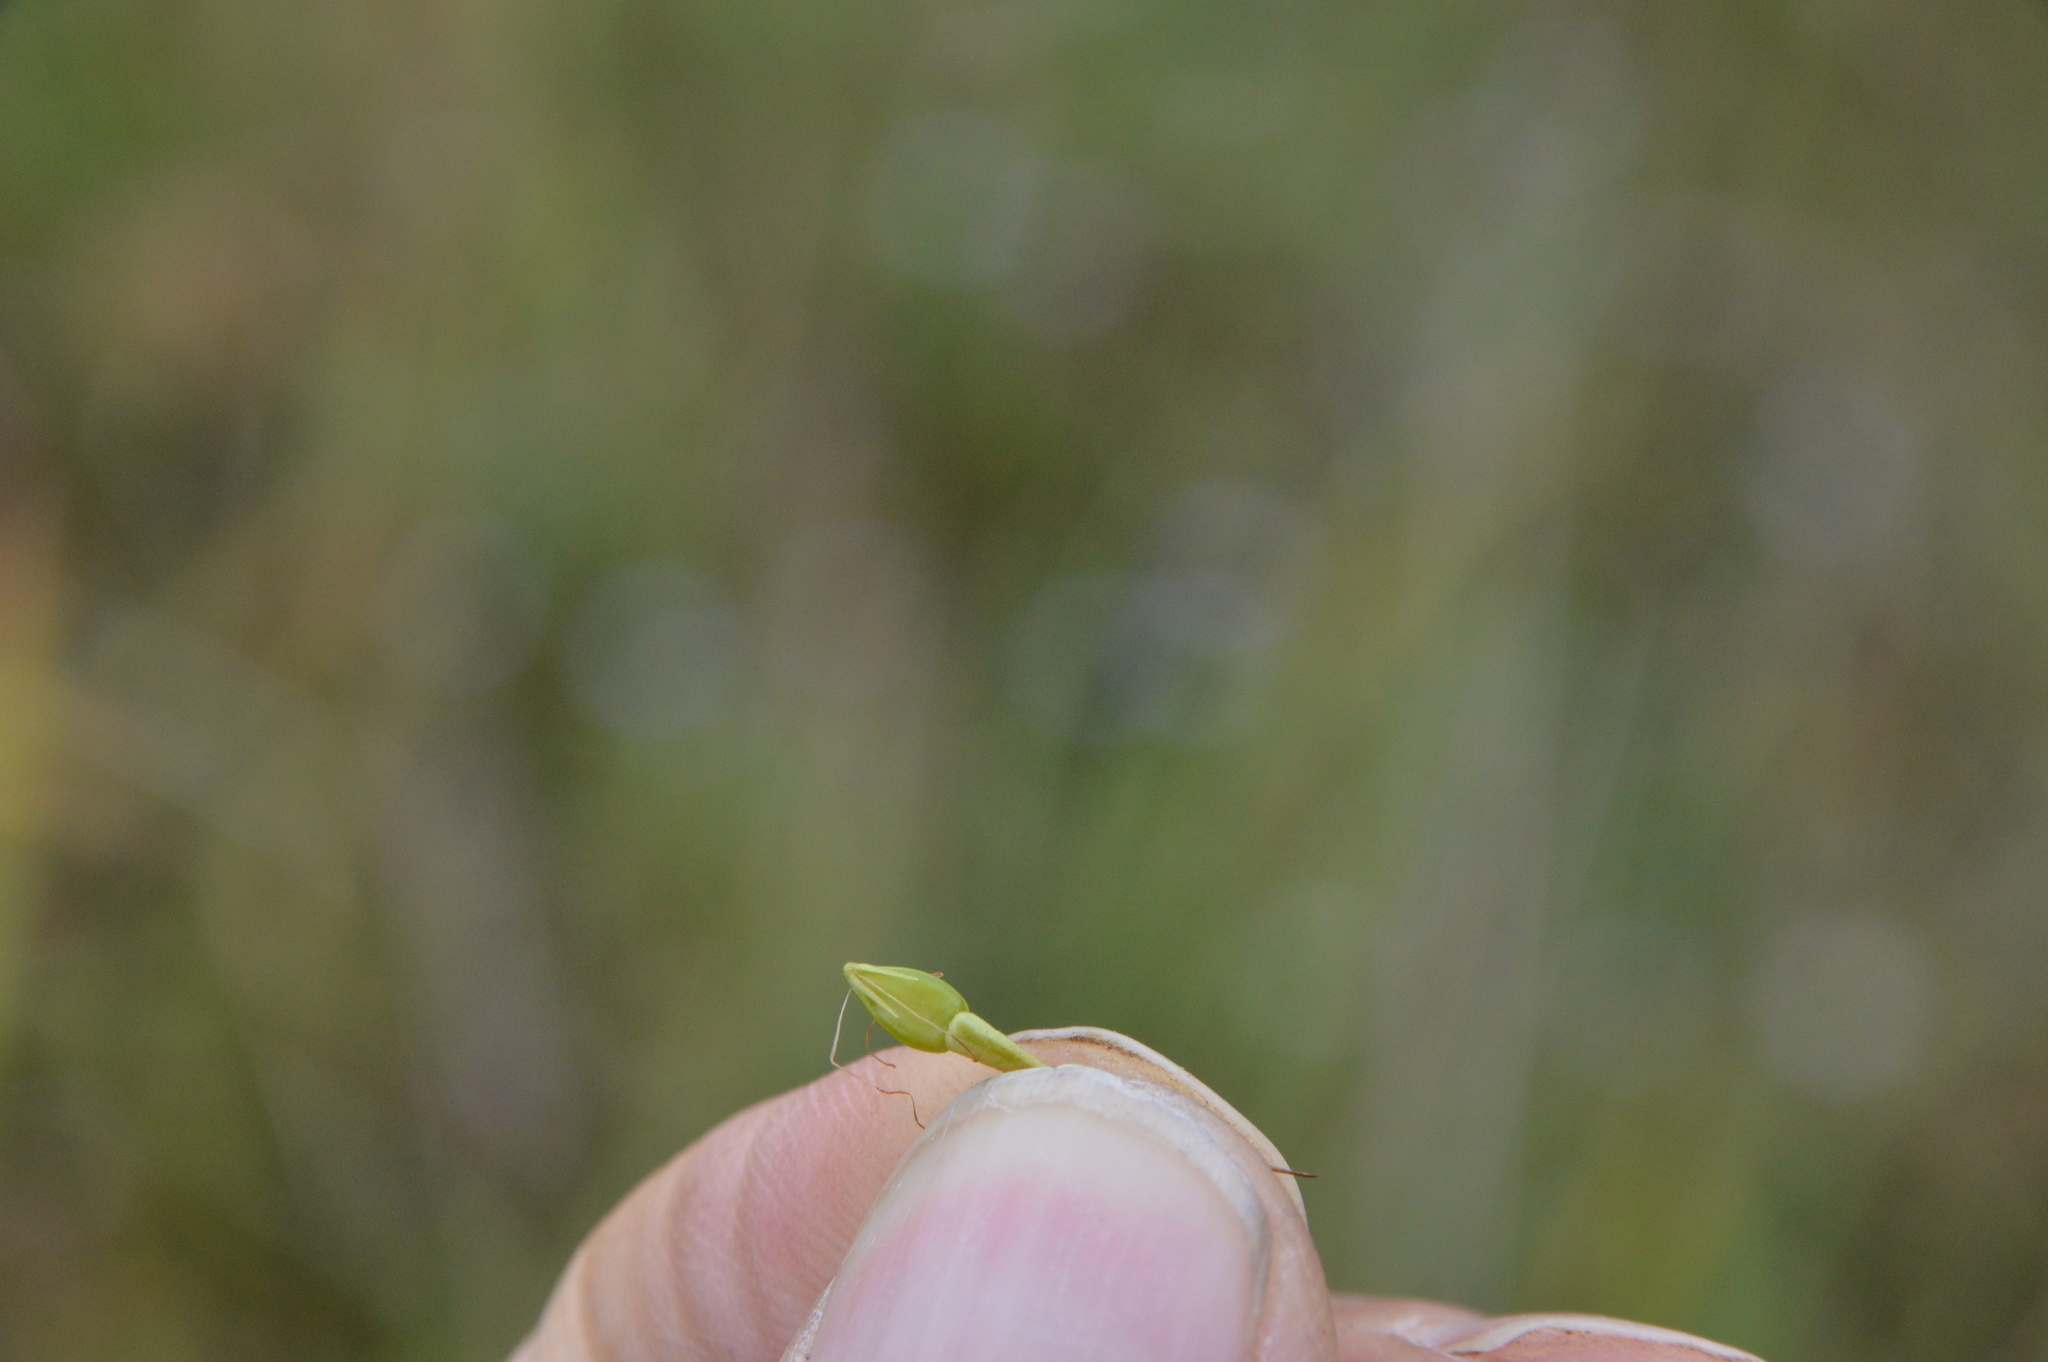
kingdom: Plantae
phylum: Tracheophyta
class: Liliopsida
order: Poales
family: Cyperaceae
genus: Rhynchospora
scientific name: Rhynchospora corniculata
